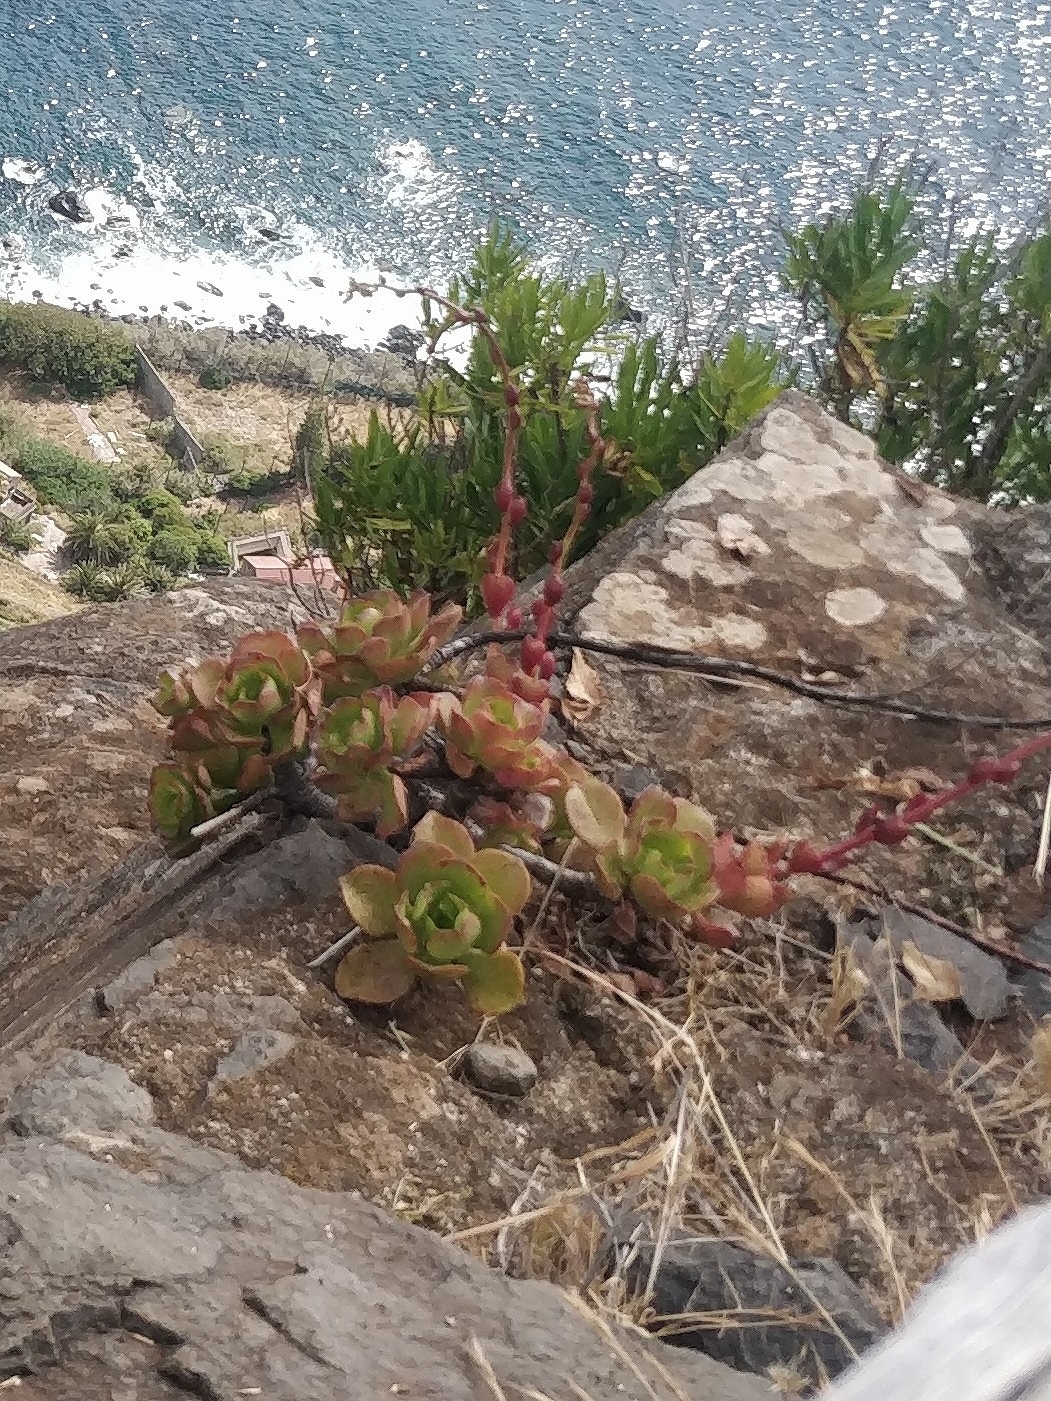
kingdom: Plantae
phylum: Tracheophyta
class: Magnoliopsida
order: Saxifragales
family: Crassulaceae
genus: Aeonium
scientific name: Aeonium glutinosum
